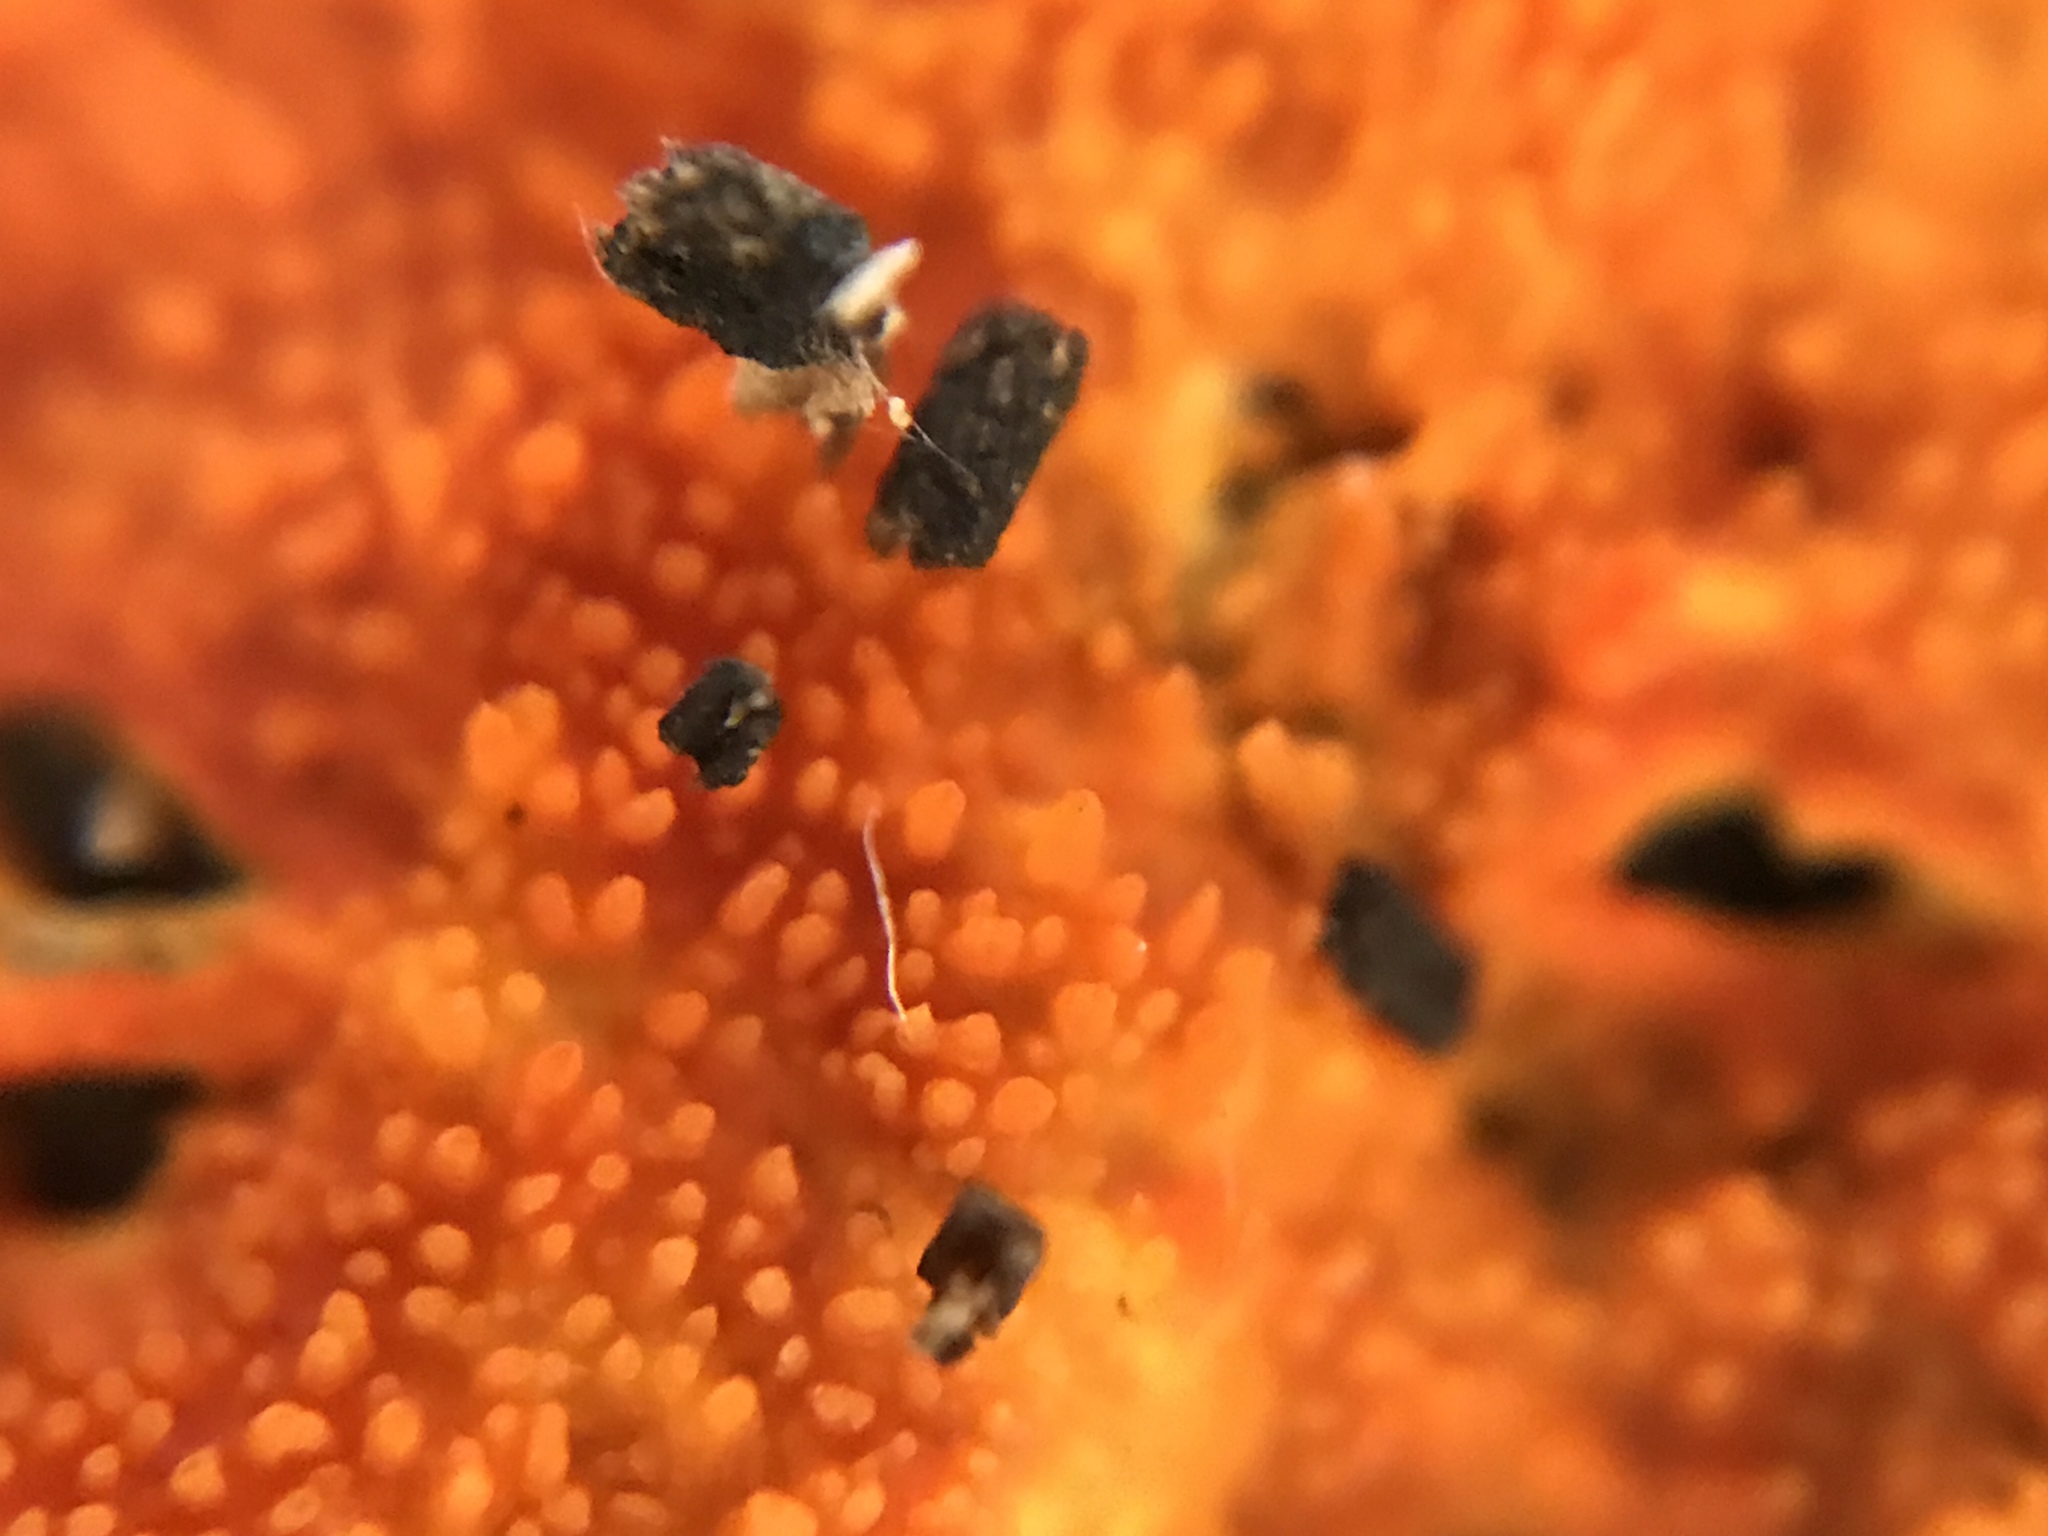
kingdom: Fungi
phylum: Basidiomycota
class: Agaricomycetes
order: Polyporales
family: Meruliaceae
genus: Hydnophlebia
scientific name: Hydnophlebia chrysorhiza
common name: Spreading yellow tooth
